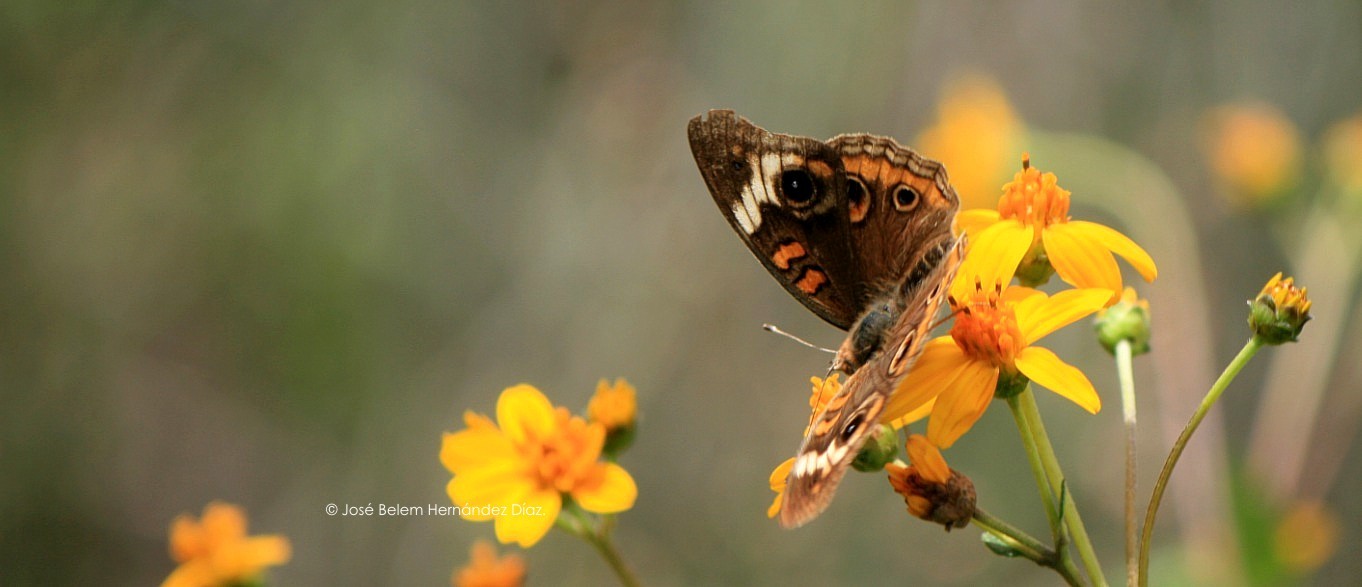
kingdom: Animalia
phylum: Arthropoda
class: Insecta
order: Lepidoptera
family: Nymphalidae
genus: Junonia
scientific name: Junonia coenia
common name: Common buckeye
